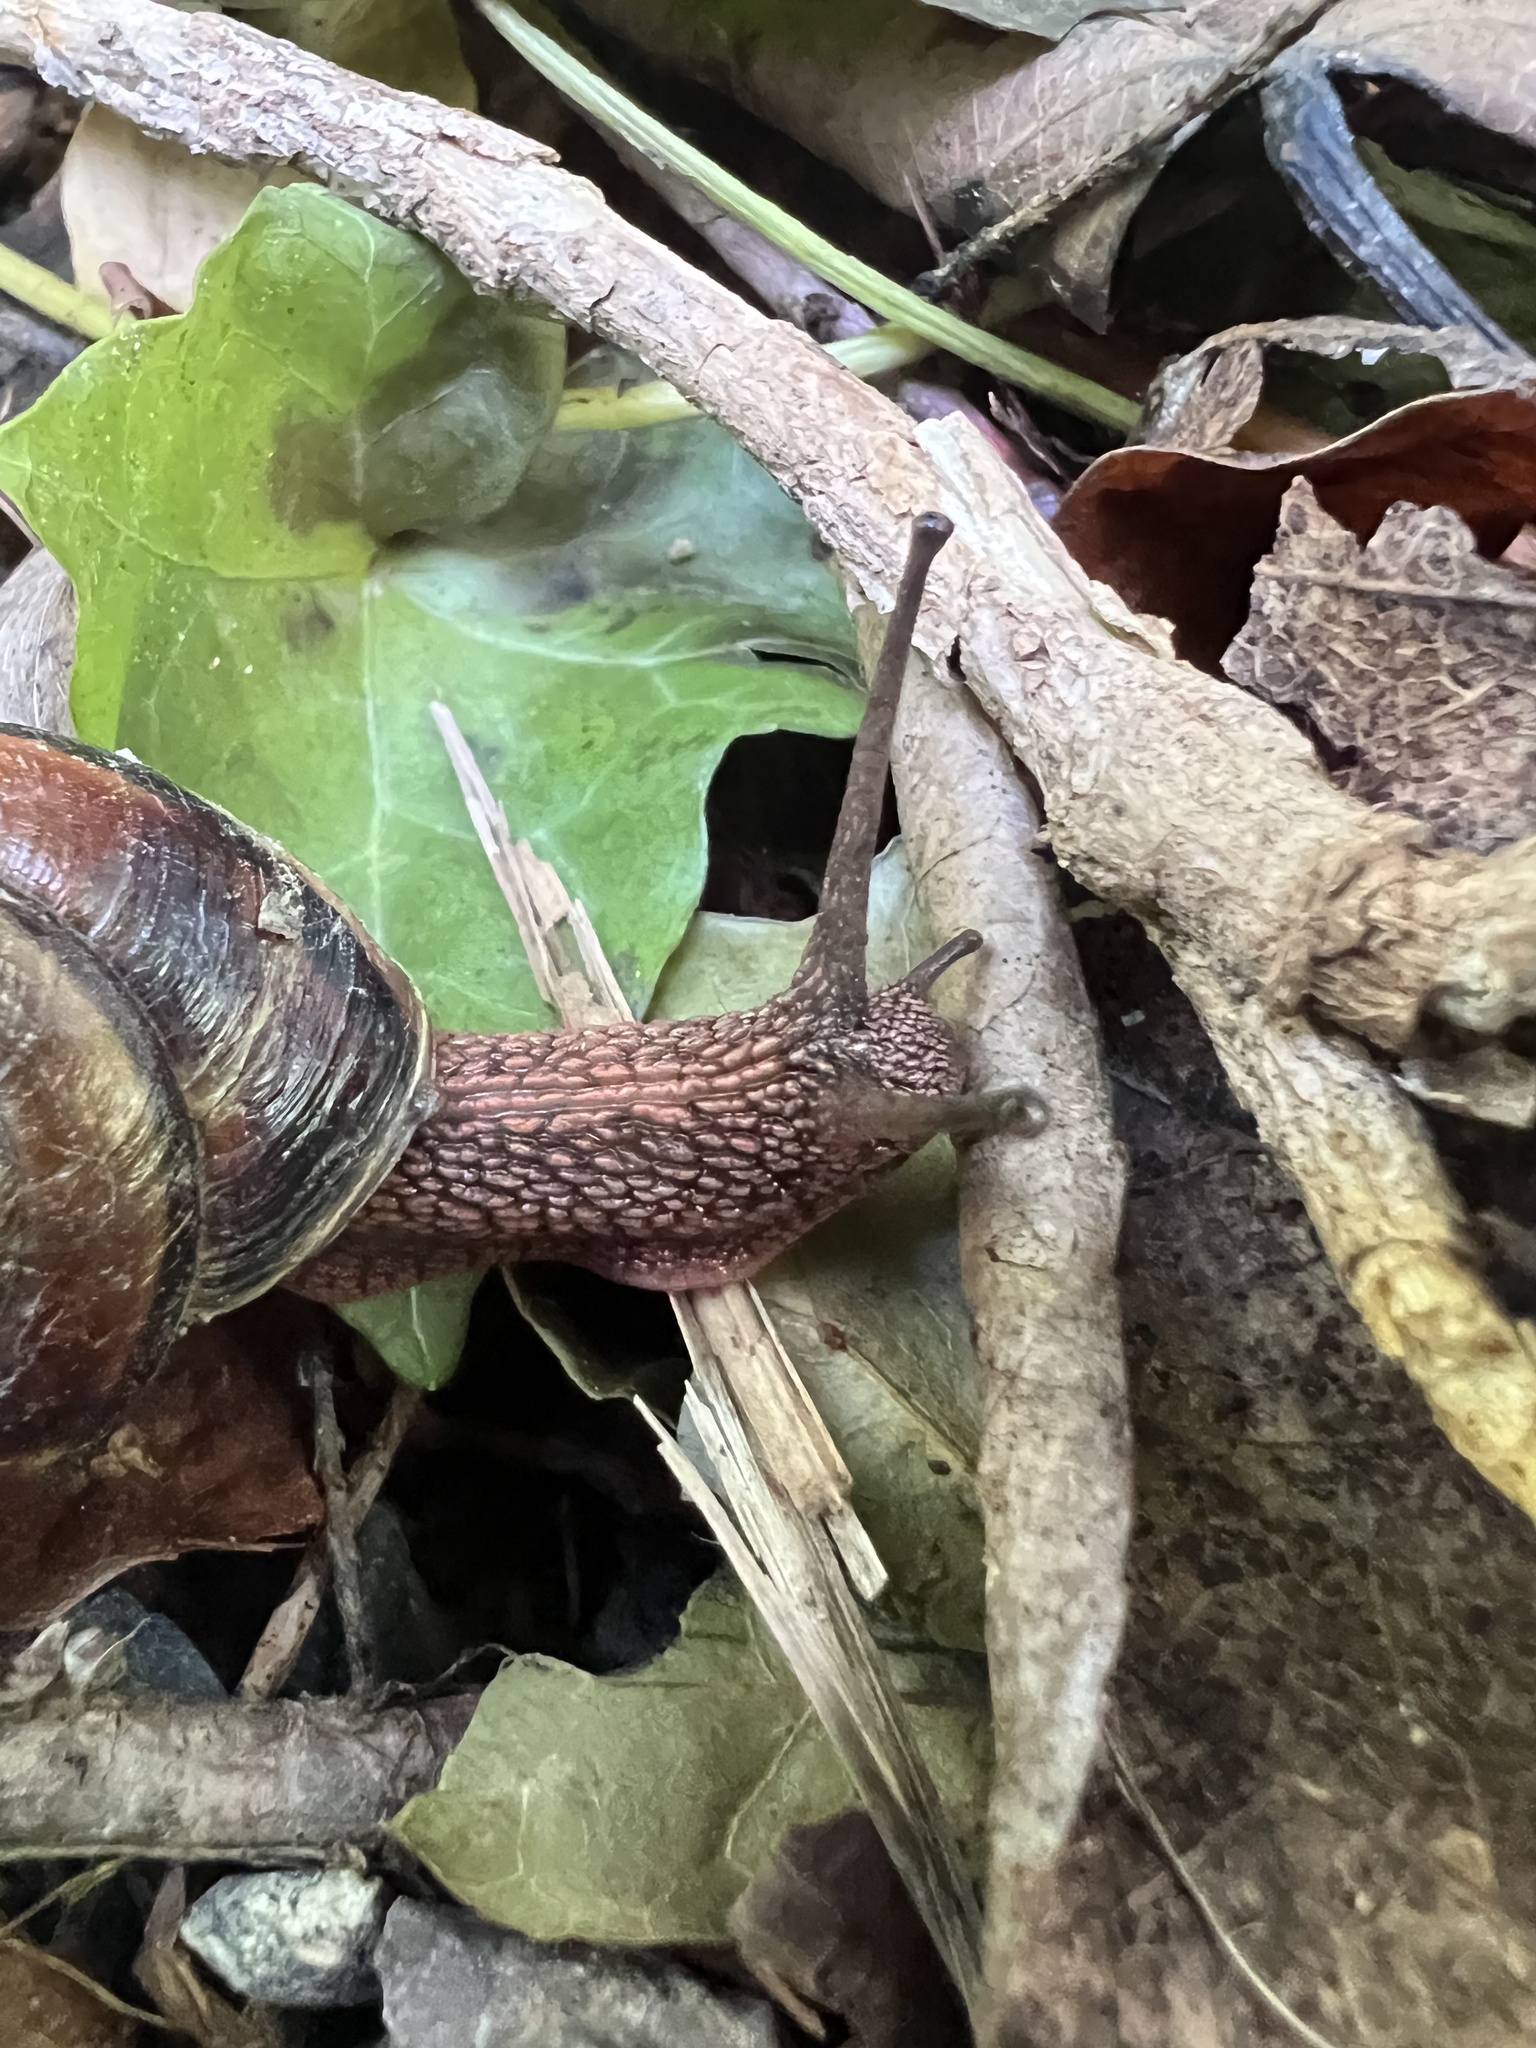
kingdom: Animalia
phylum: Mollusca
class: Gastropoda
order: Stylommatophora
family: Xanthonychidae
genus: Monadenia
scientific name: Monadenia fidelis
